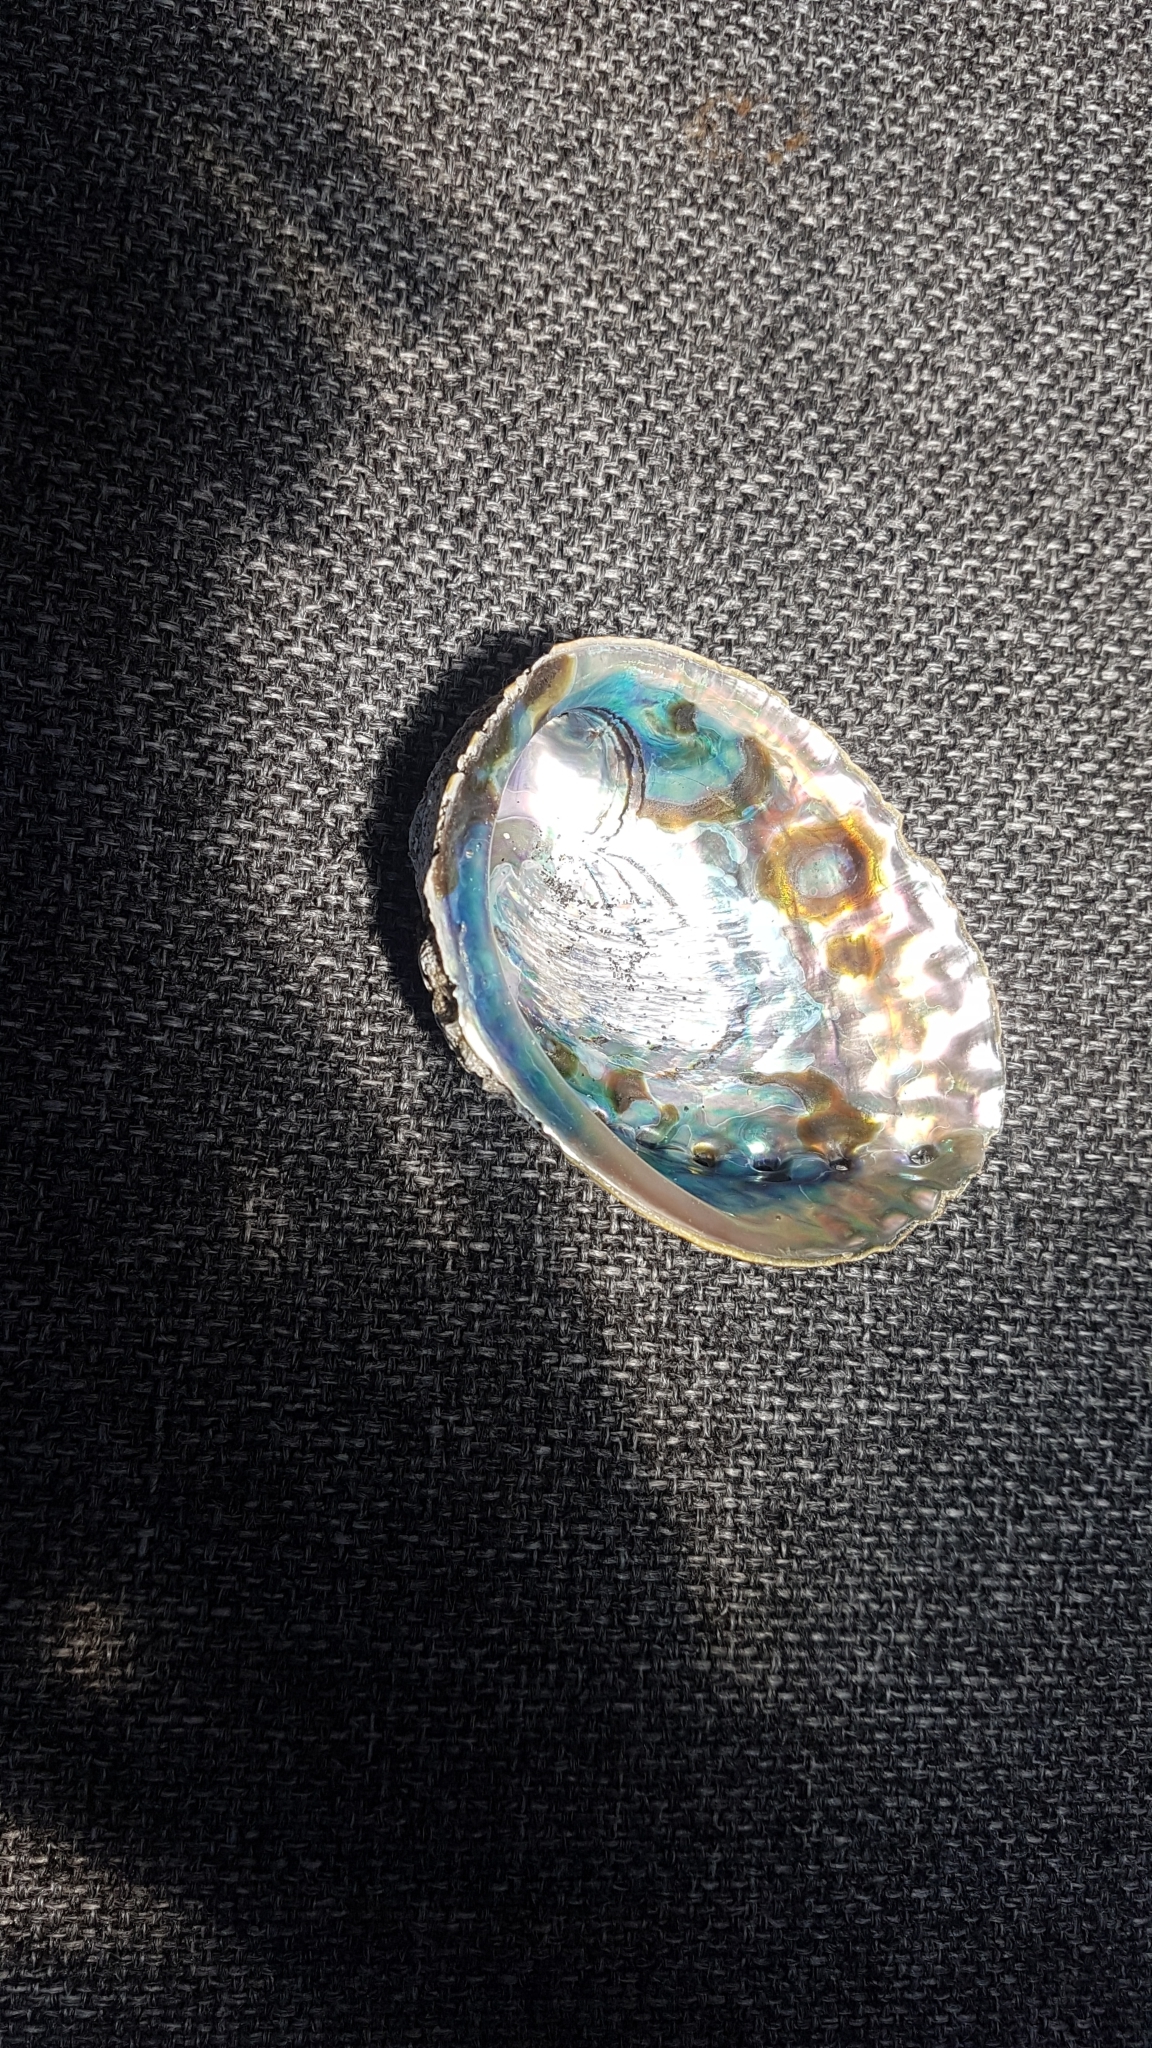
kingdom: Animalia
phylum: Mollusca
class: Gastropoda
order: Lepetellida
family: Haliotidae
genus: Haliotis
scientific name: Haliotis iris
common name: Abalone
